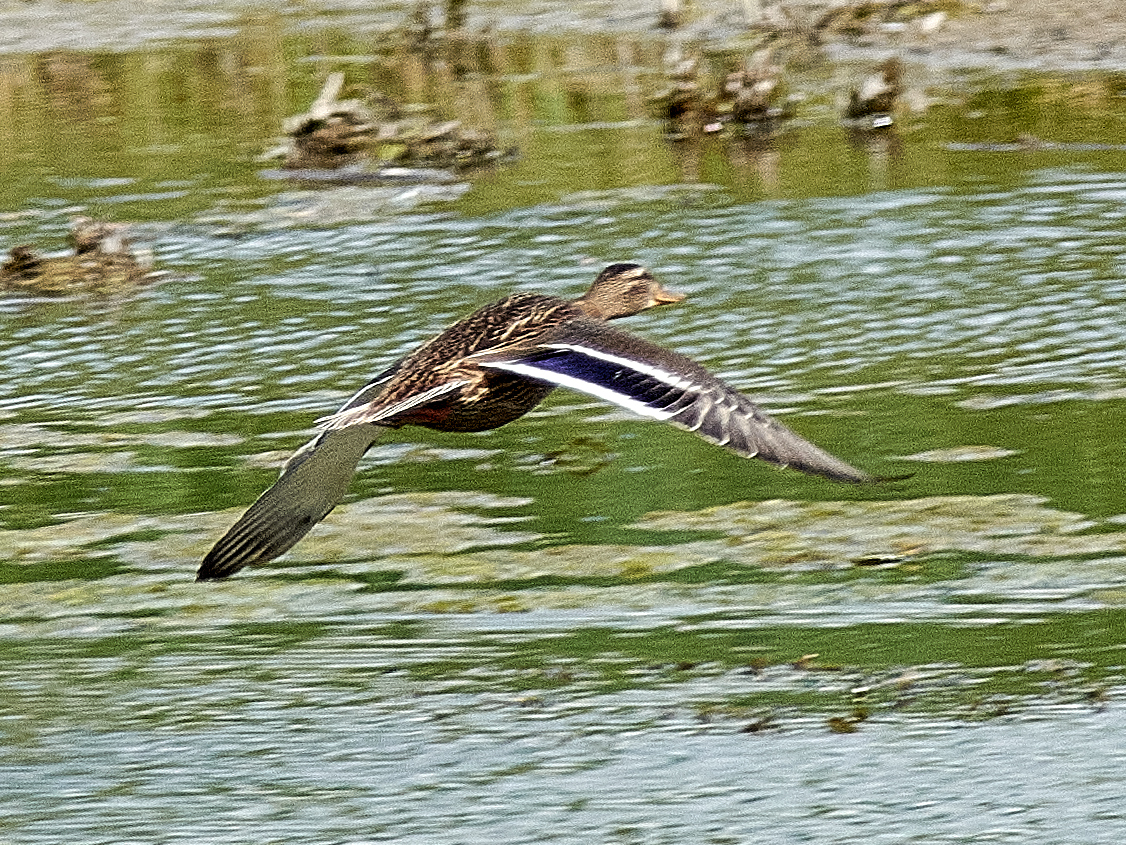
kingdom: Animalia
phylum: Chordata
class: Aves
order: Anseriformes
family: Anatidae
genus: Anas
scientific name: Anas platyrhynchos
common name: Mallard
